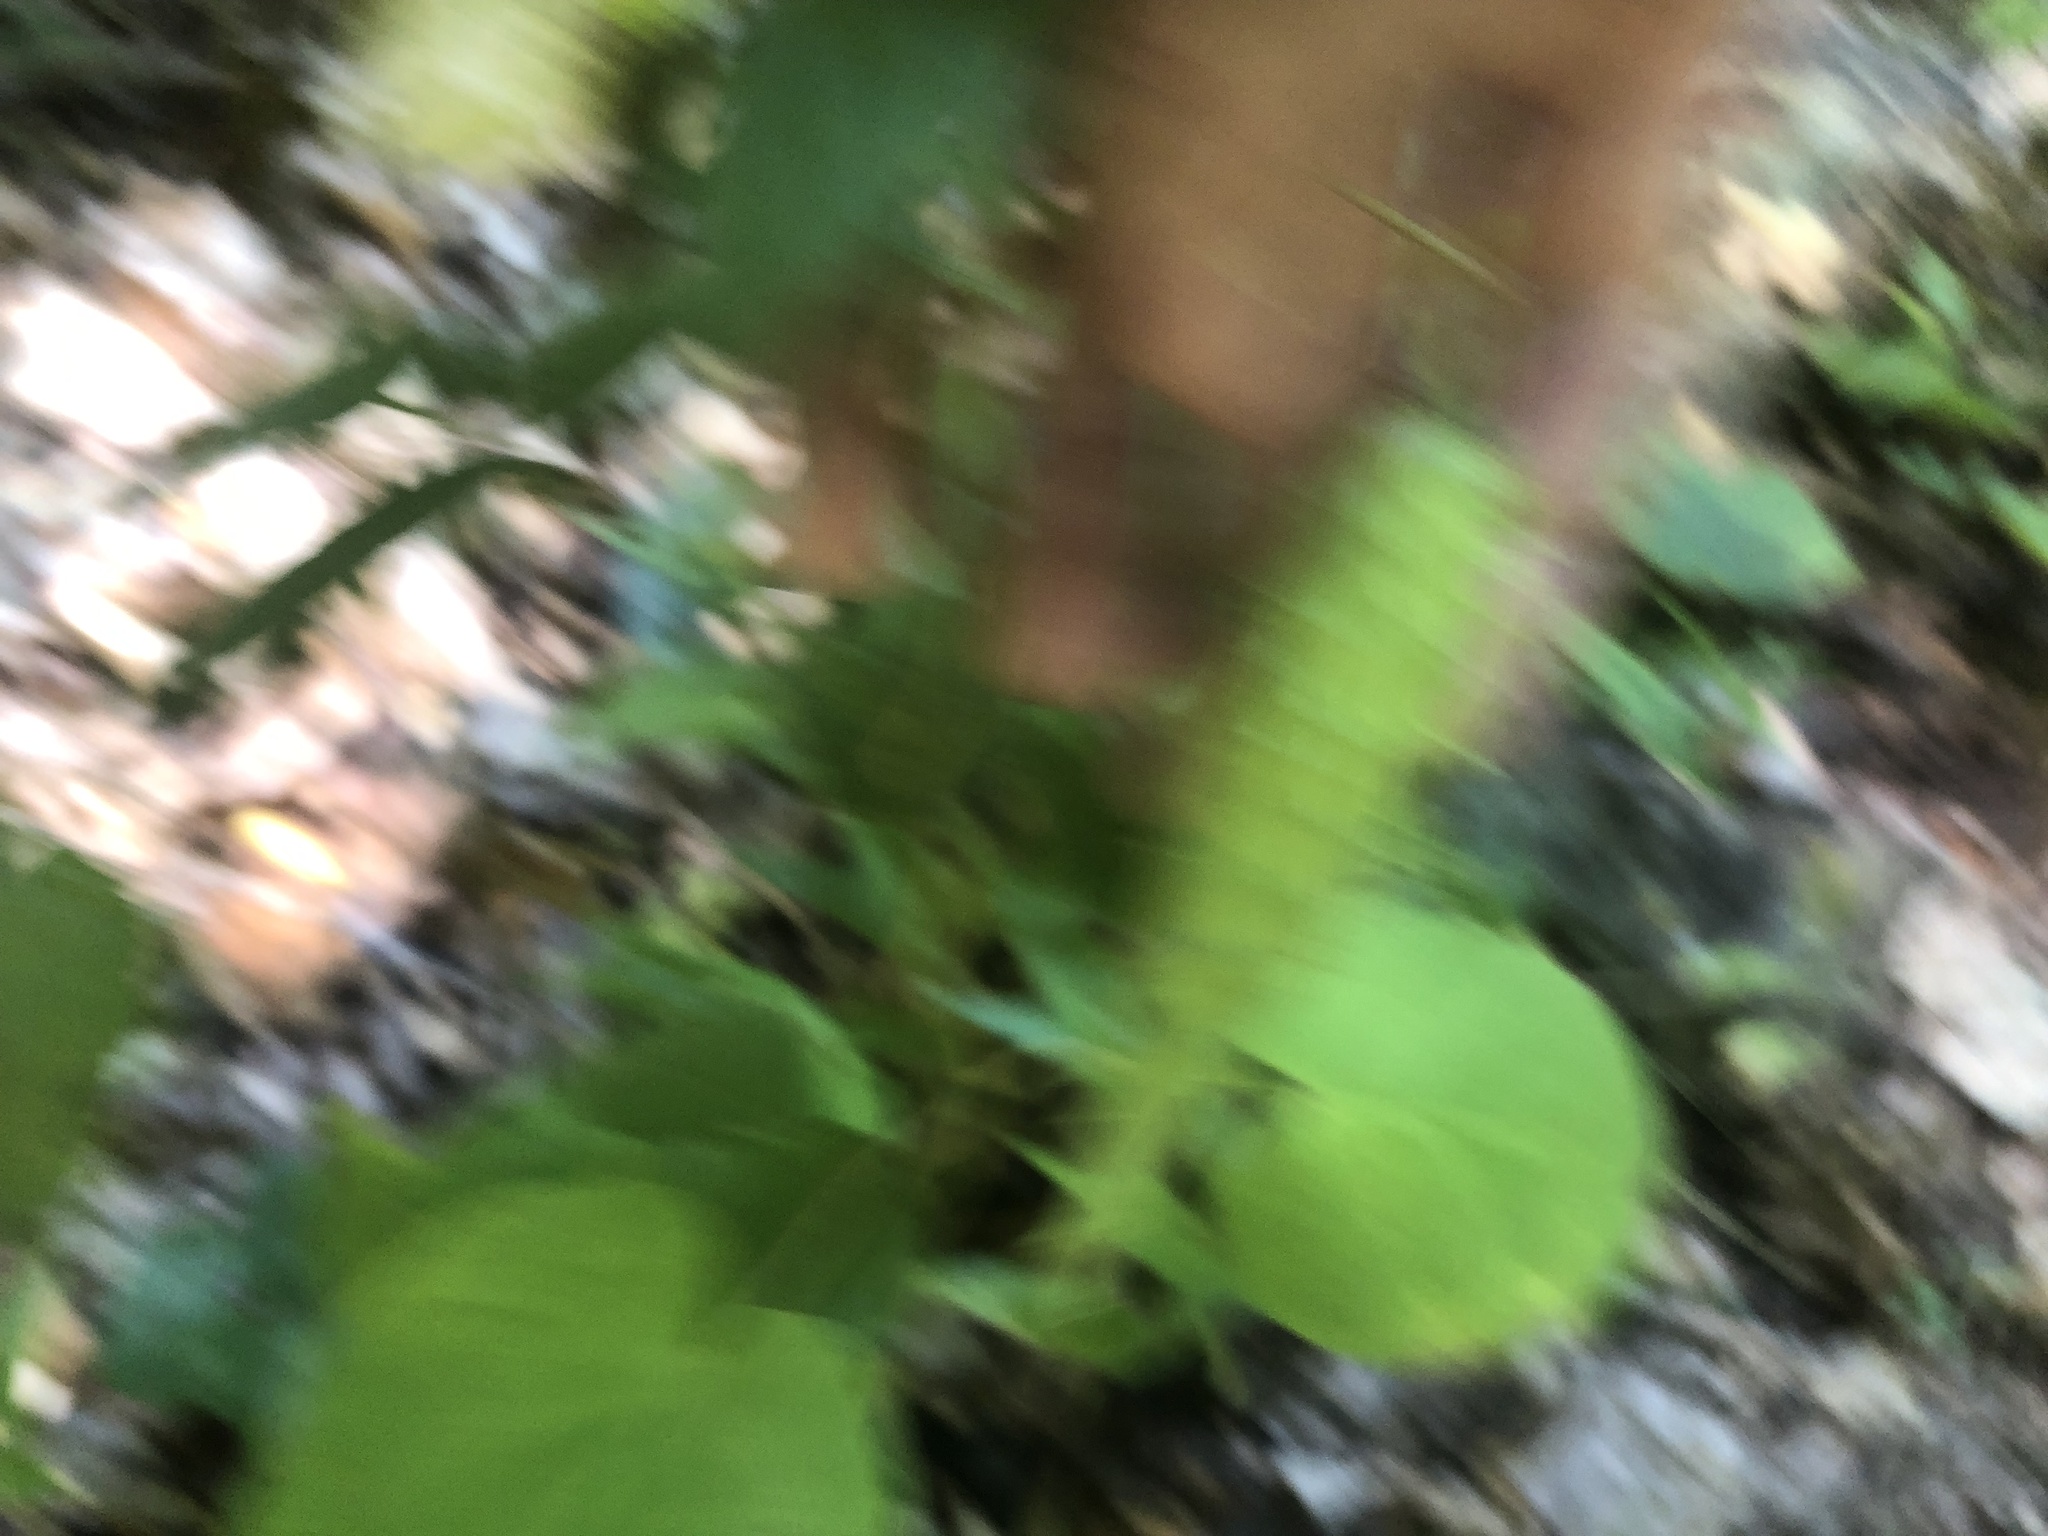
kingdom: Plantae
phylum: Tracheophyta
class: Magnoliopsida
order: Gentianales
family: Apocynaceae
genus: Matelea
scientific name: Matelea carolinensis
